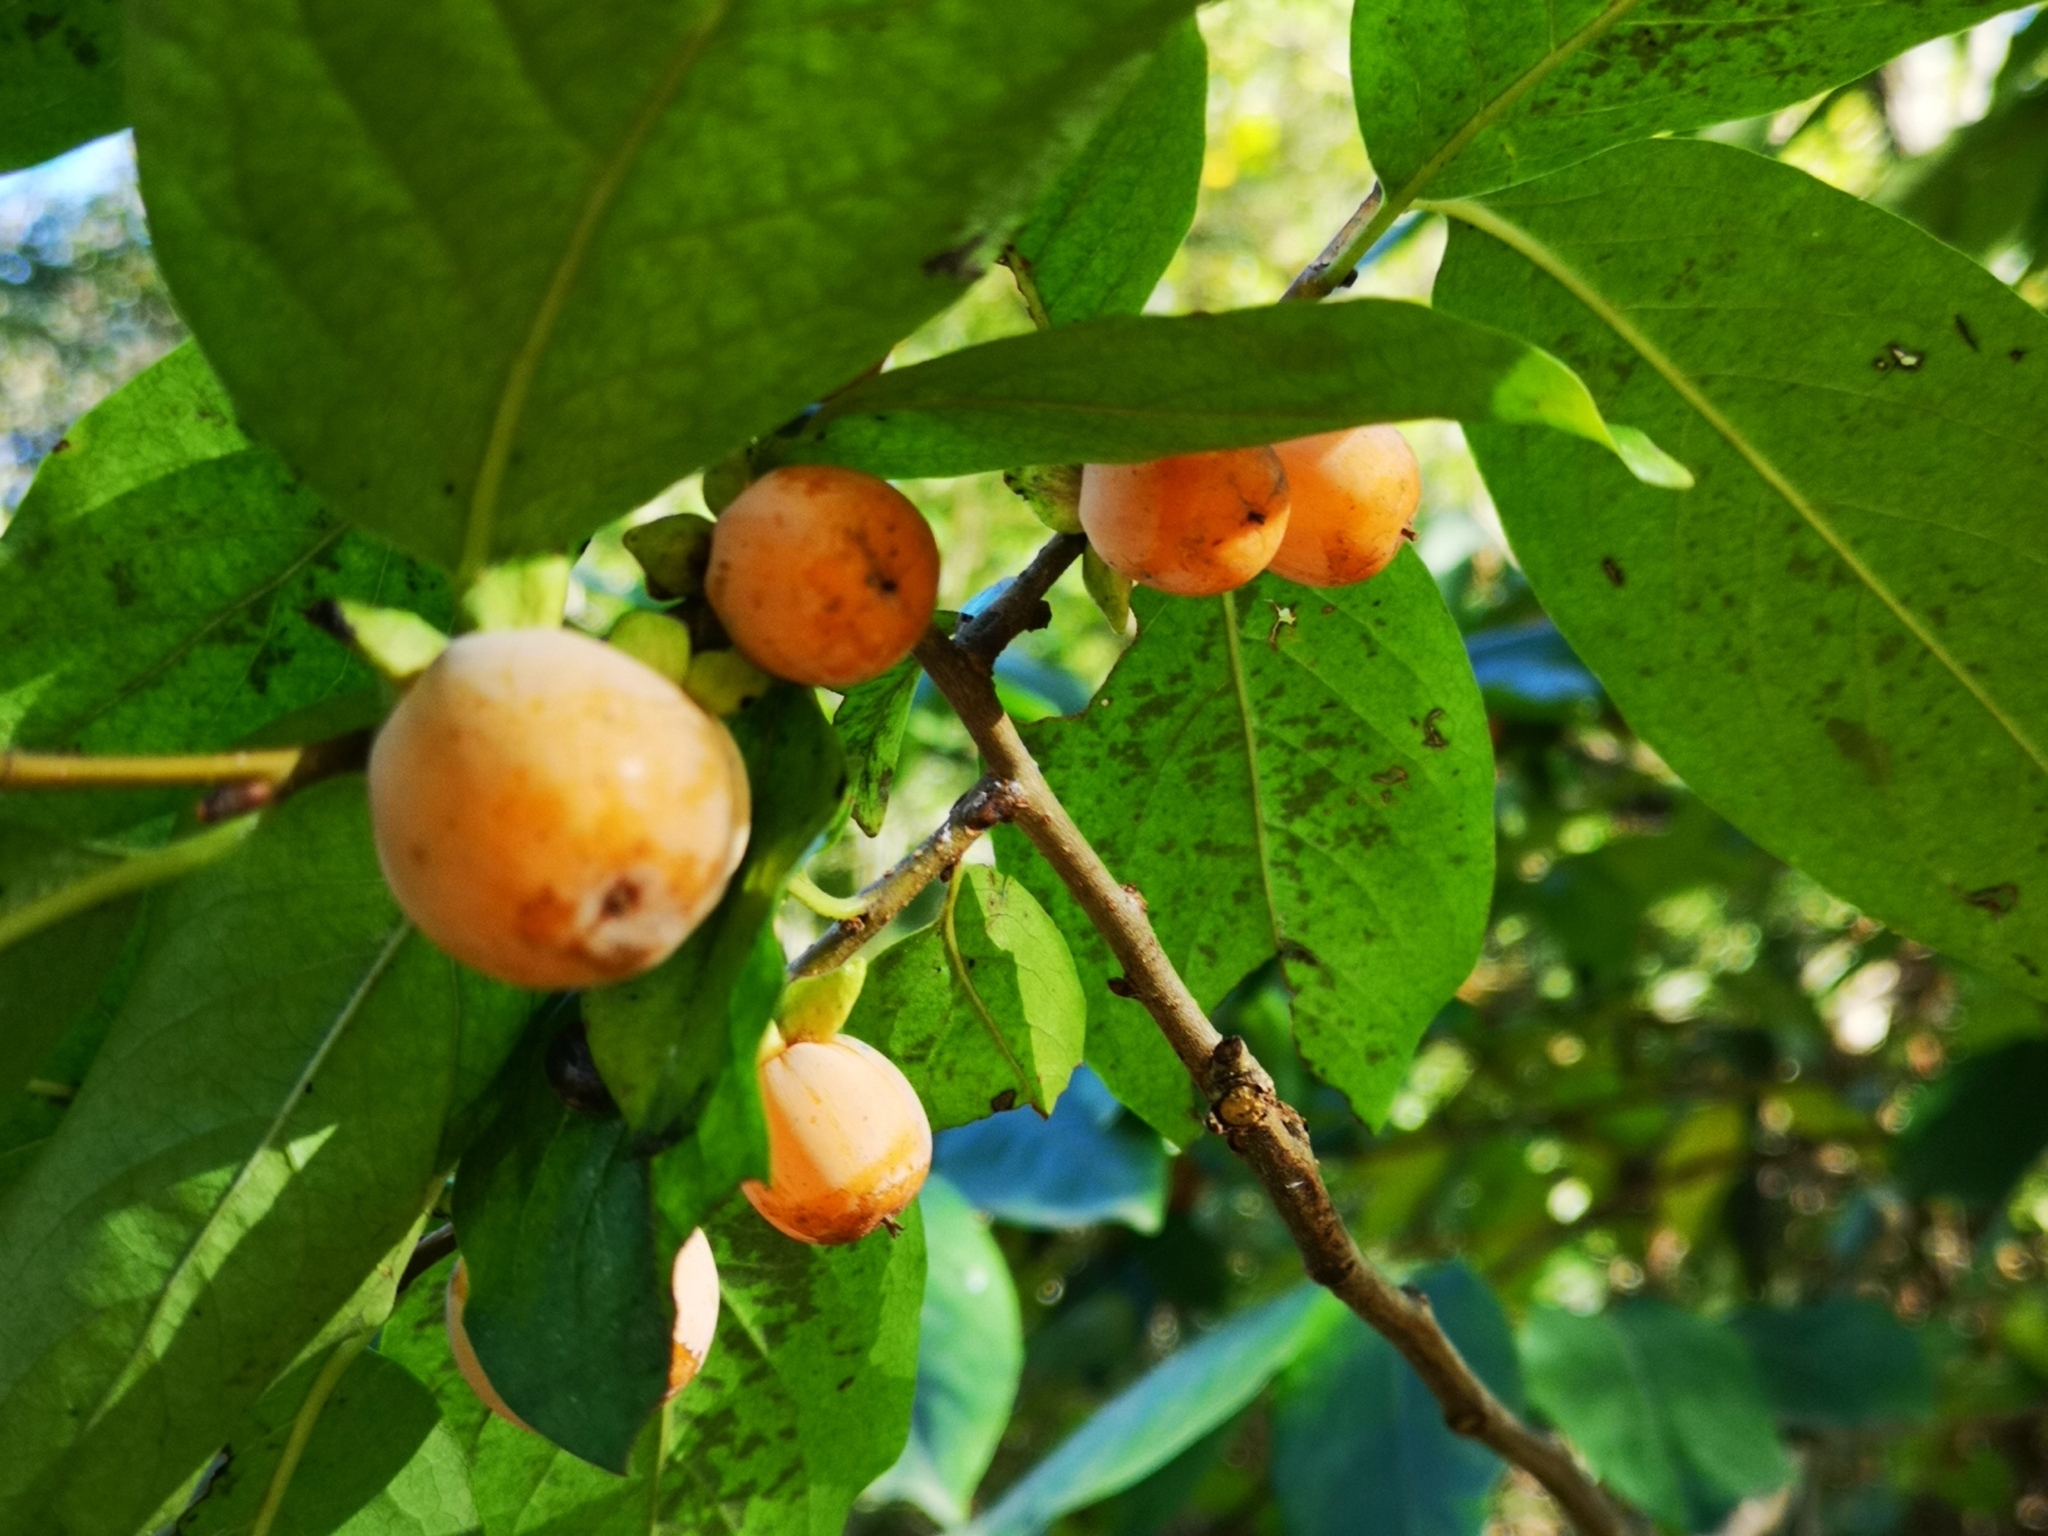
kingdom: Plantae
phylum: Tracheophyta
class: Magnoliopsida
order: Ericales
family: Ebenaceae
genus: Diospyros
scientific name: Diospyros lotus
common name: Date-plum
